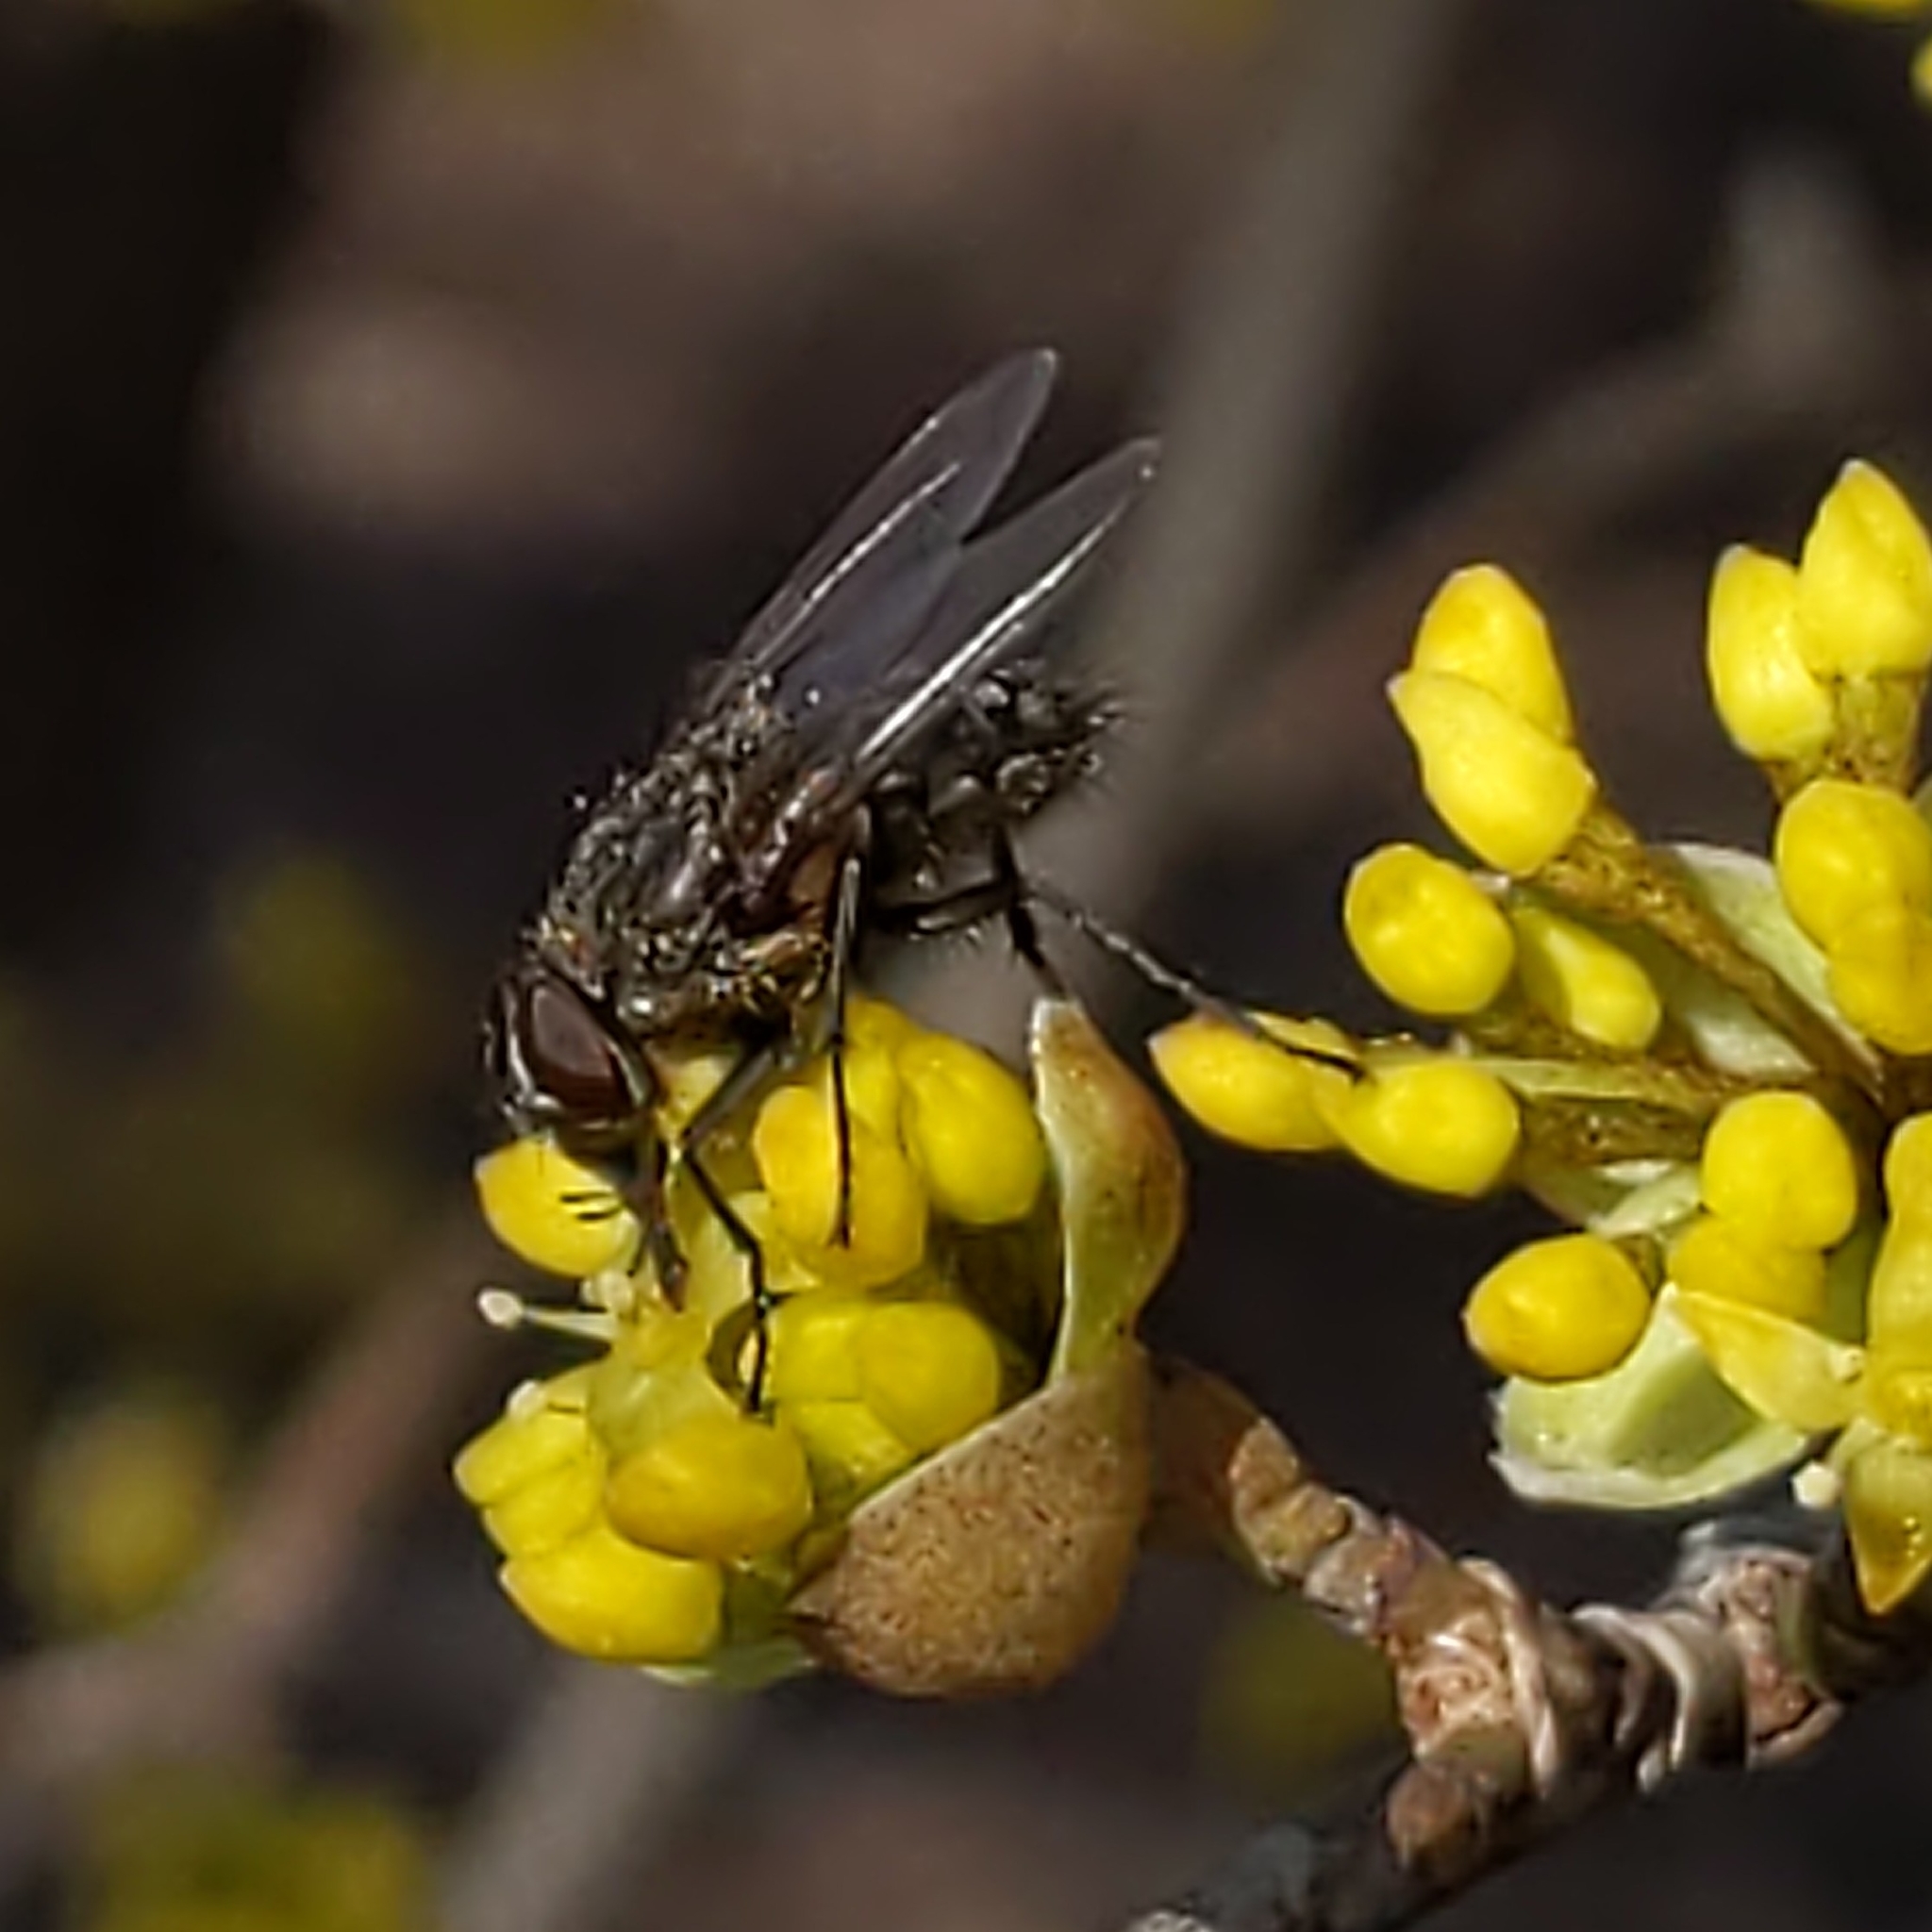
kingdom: Animalia
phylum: Arthropoda
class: Insecta
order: Diptera
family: Polleniidae
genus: Pollenia
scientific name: Pollenia
